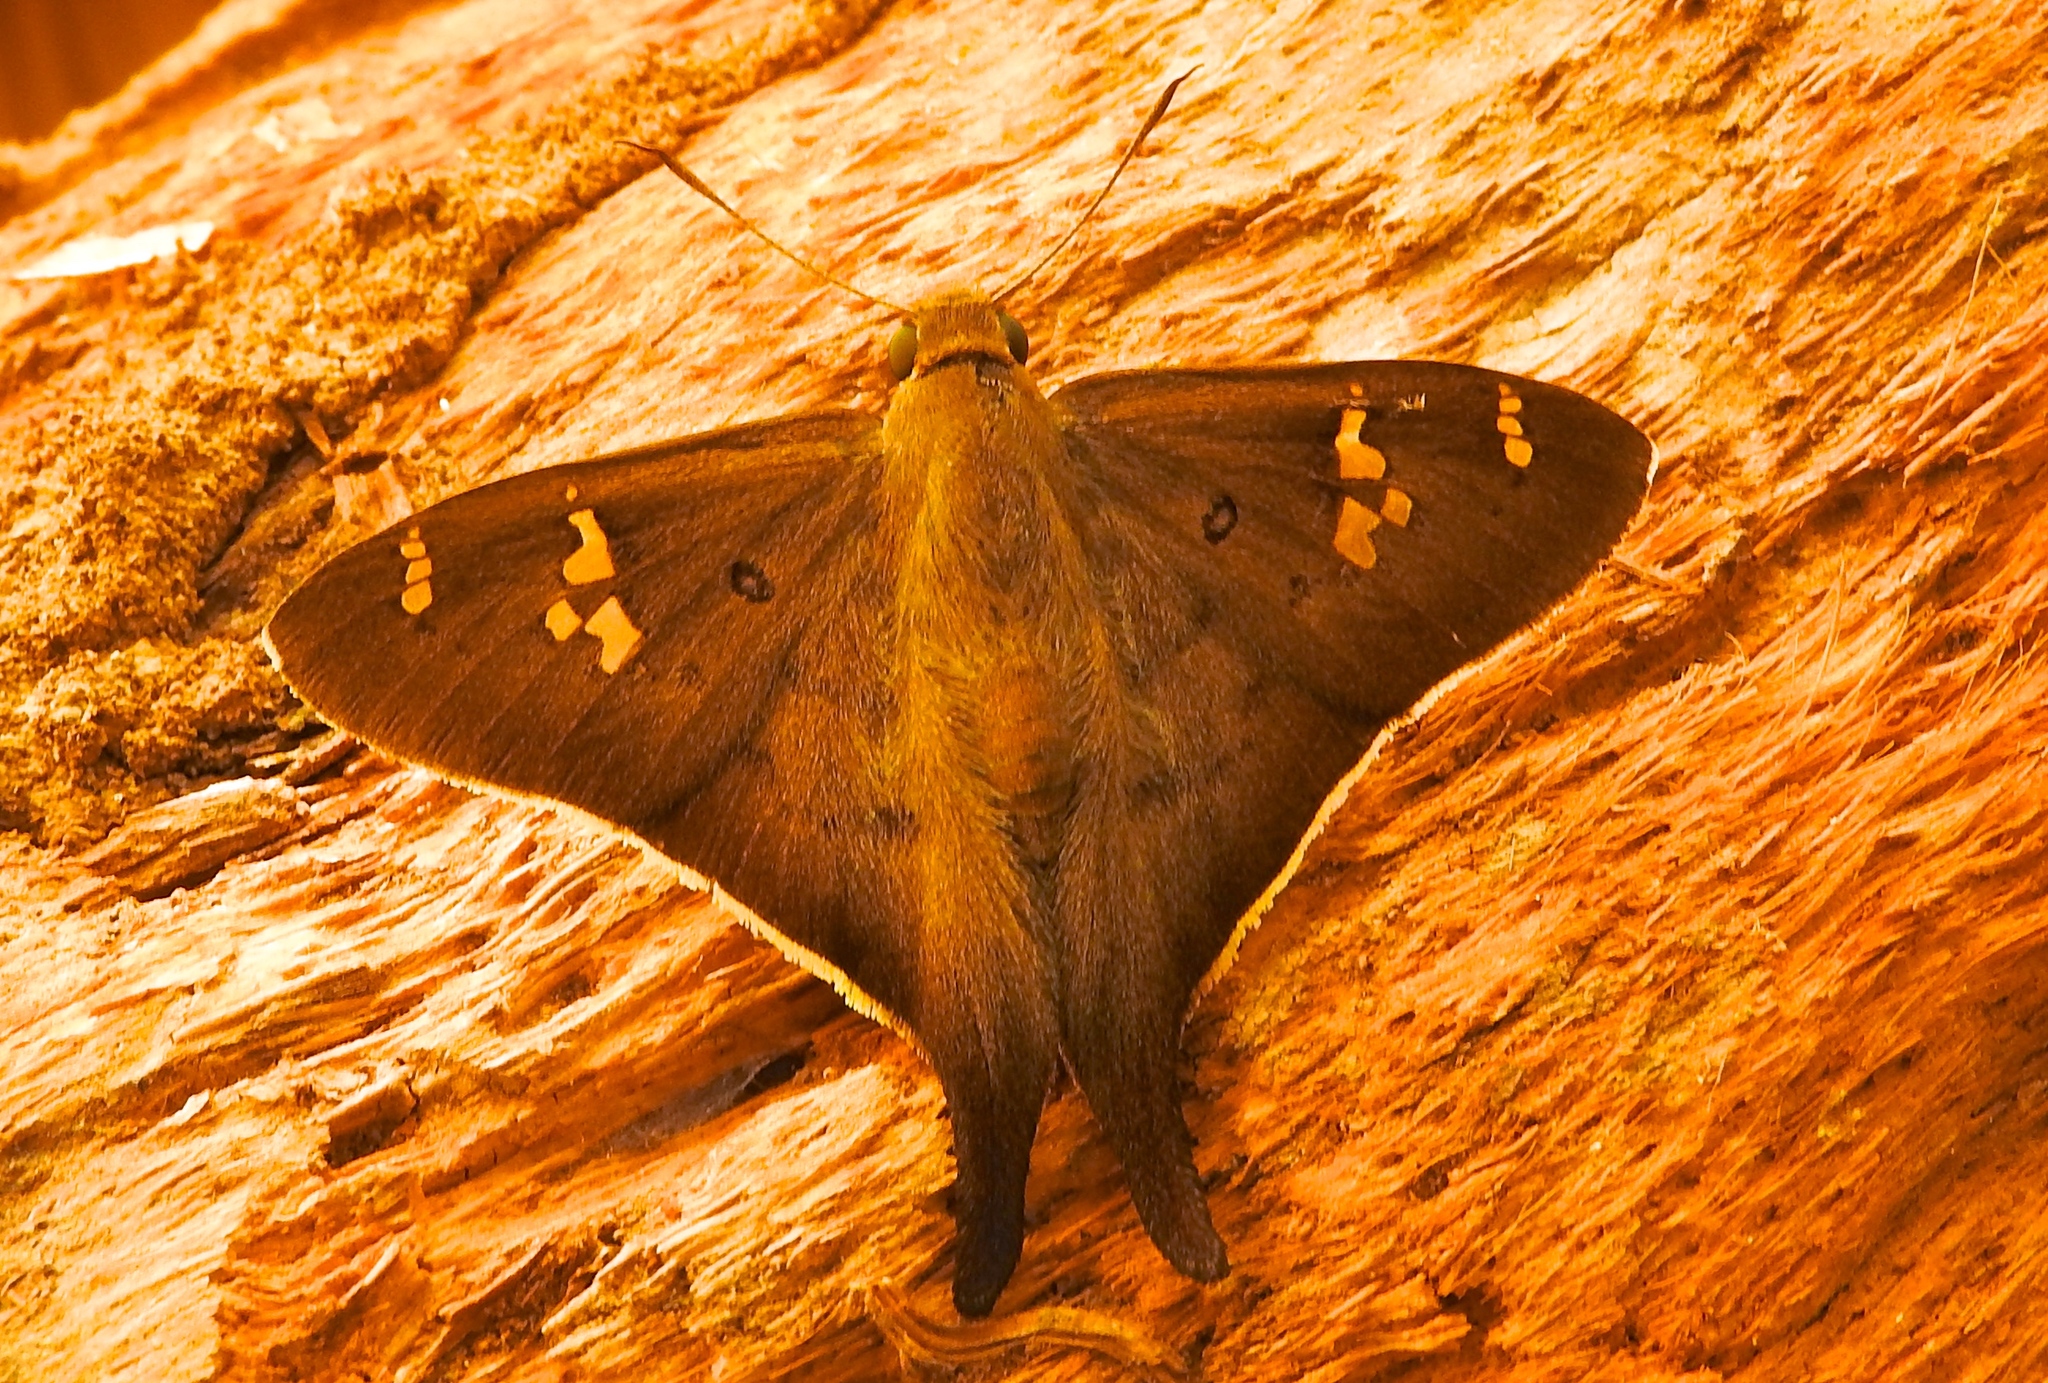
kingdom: Animalia
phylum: Arthropoda
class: Insecta
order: Lepidoptera
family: Hesperiidae
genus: Ectomis
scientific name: Ectomis
